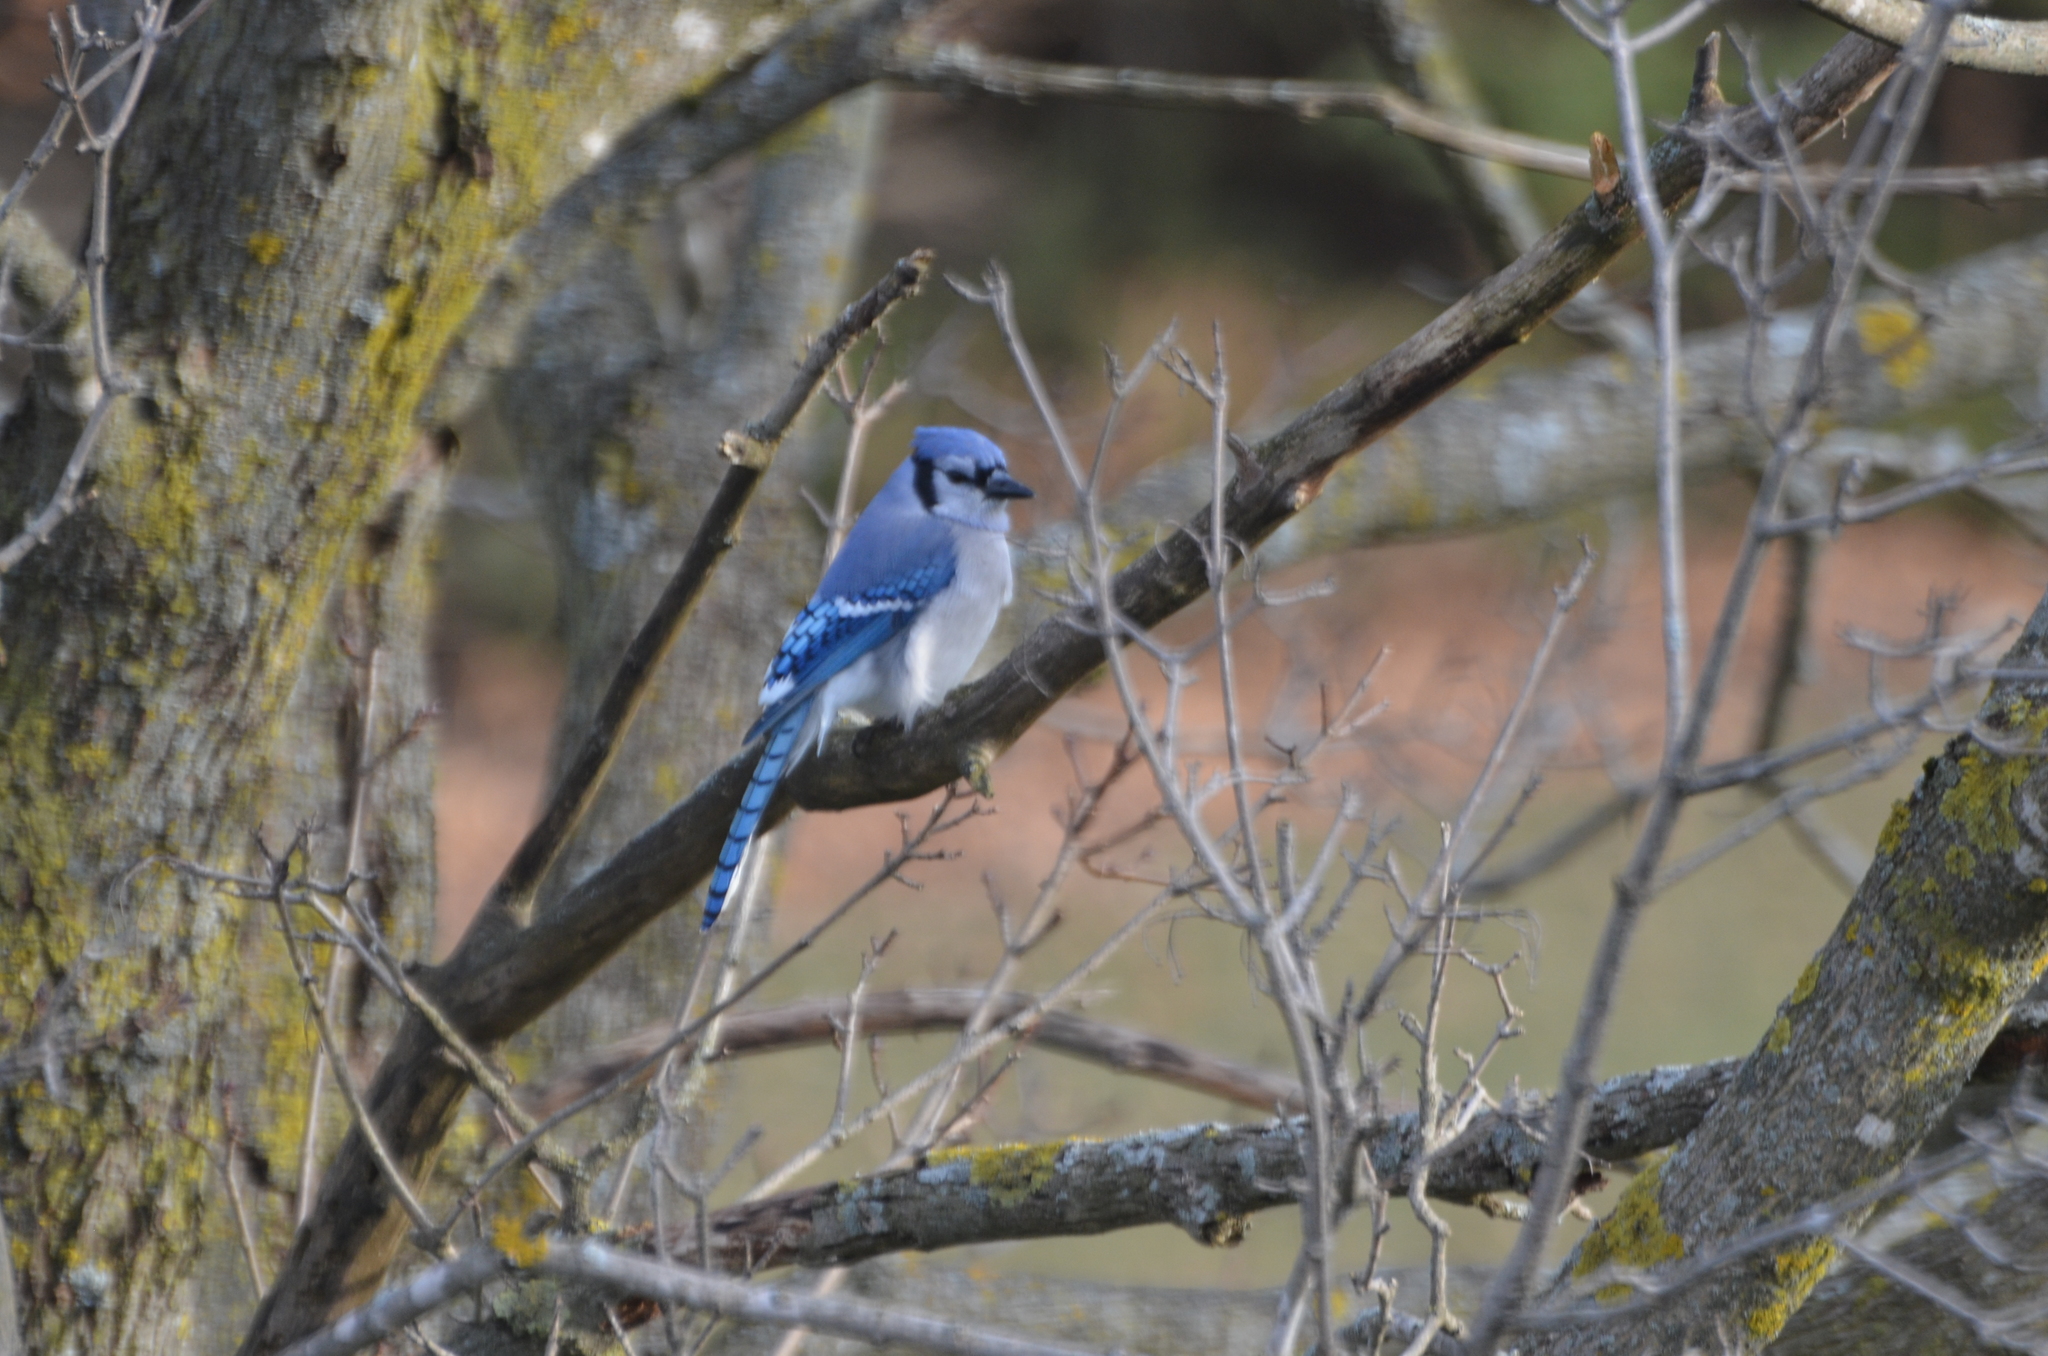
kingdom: Animalia
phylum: Chordata
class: Aves
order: Passeriformes
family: Corvidae
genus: Cyanocitta
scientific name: Cyanocitta cristata
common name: Blue jay
